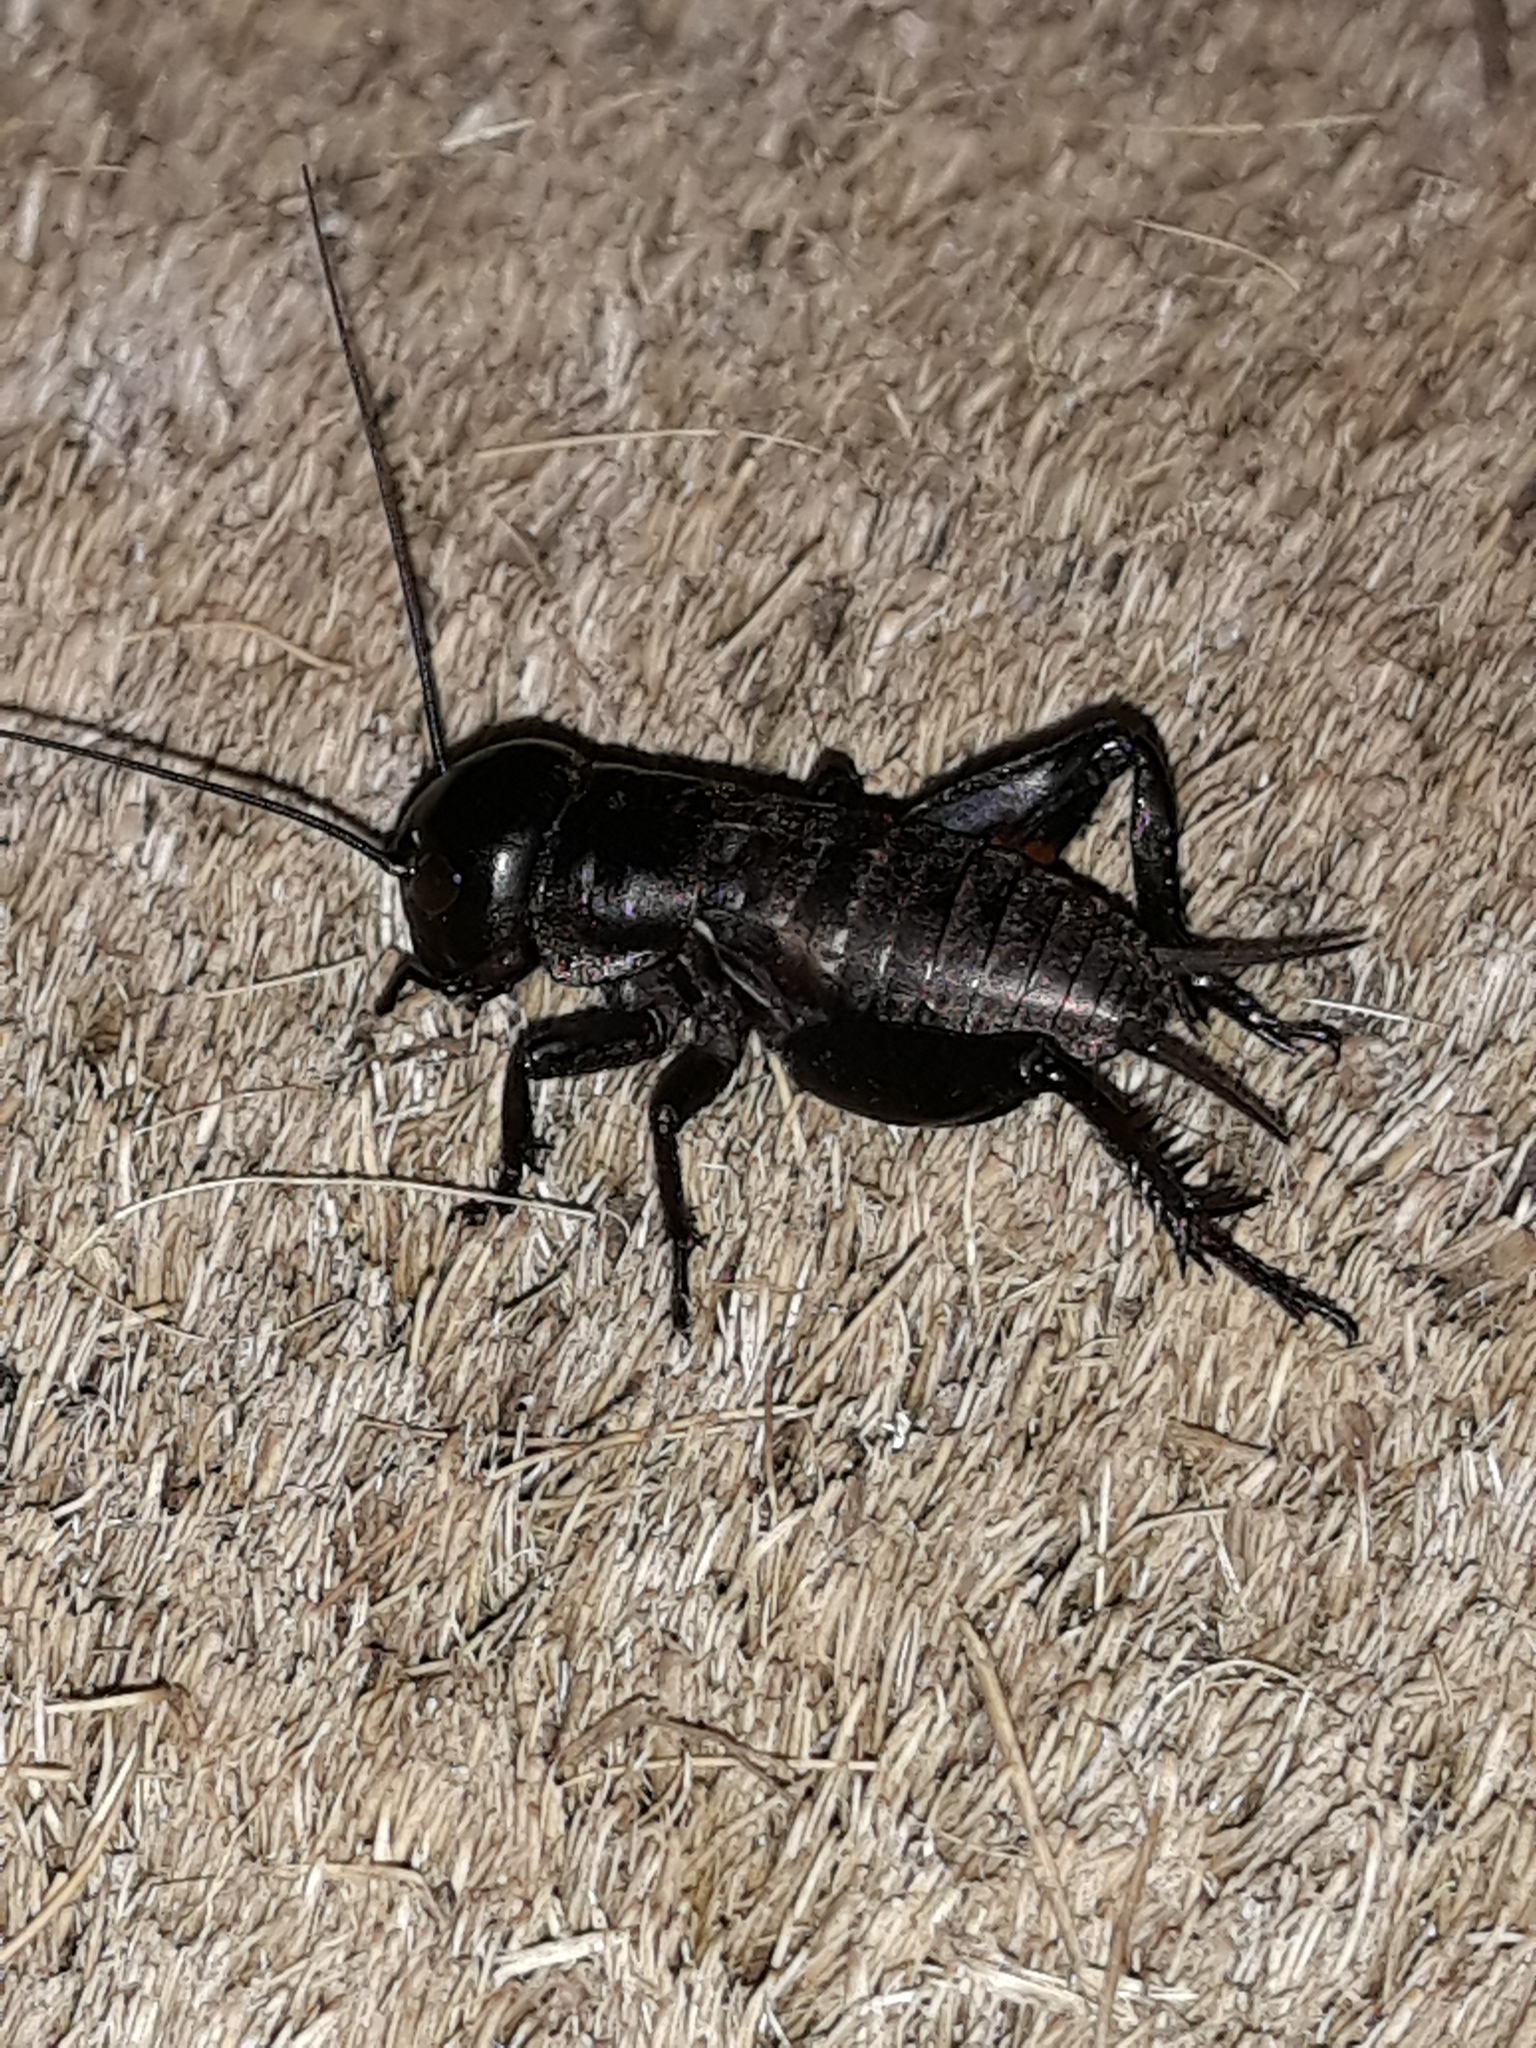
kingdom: Animalia
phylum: Arthropoda
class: Insecta
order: Orthoptera
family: Gryllidae
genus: Gryllus
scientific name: Gryllus campestris
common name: Field cricket
